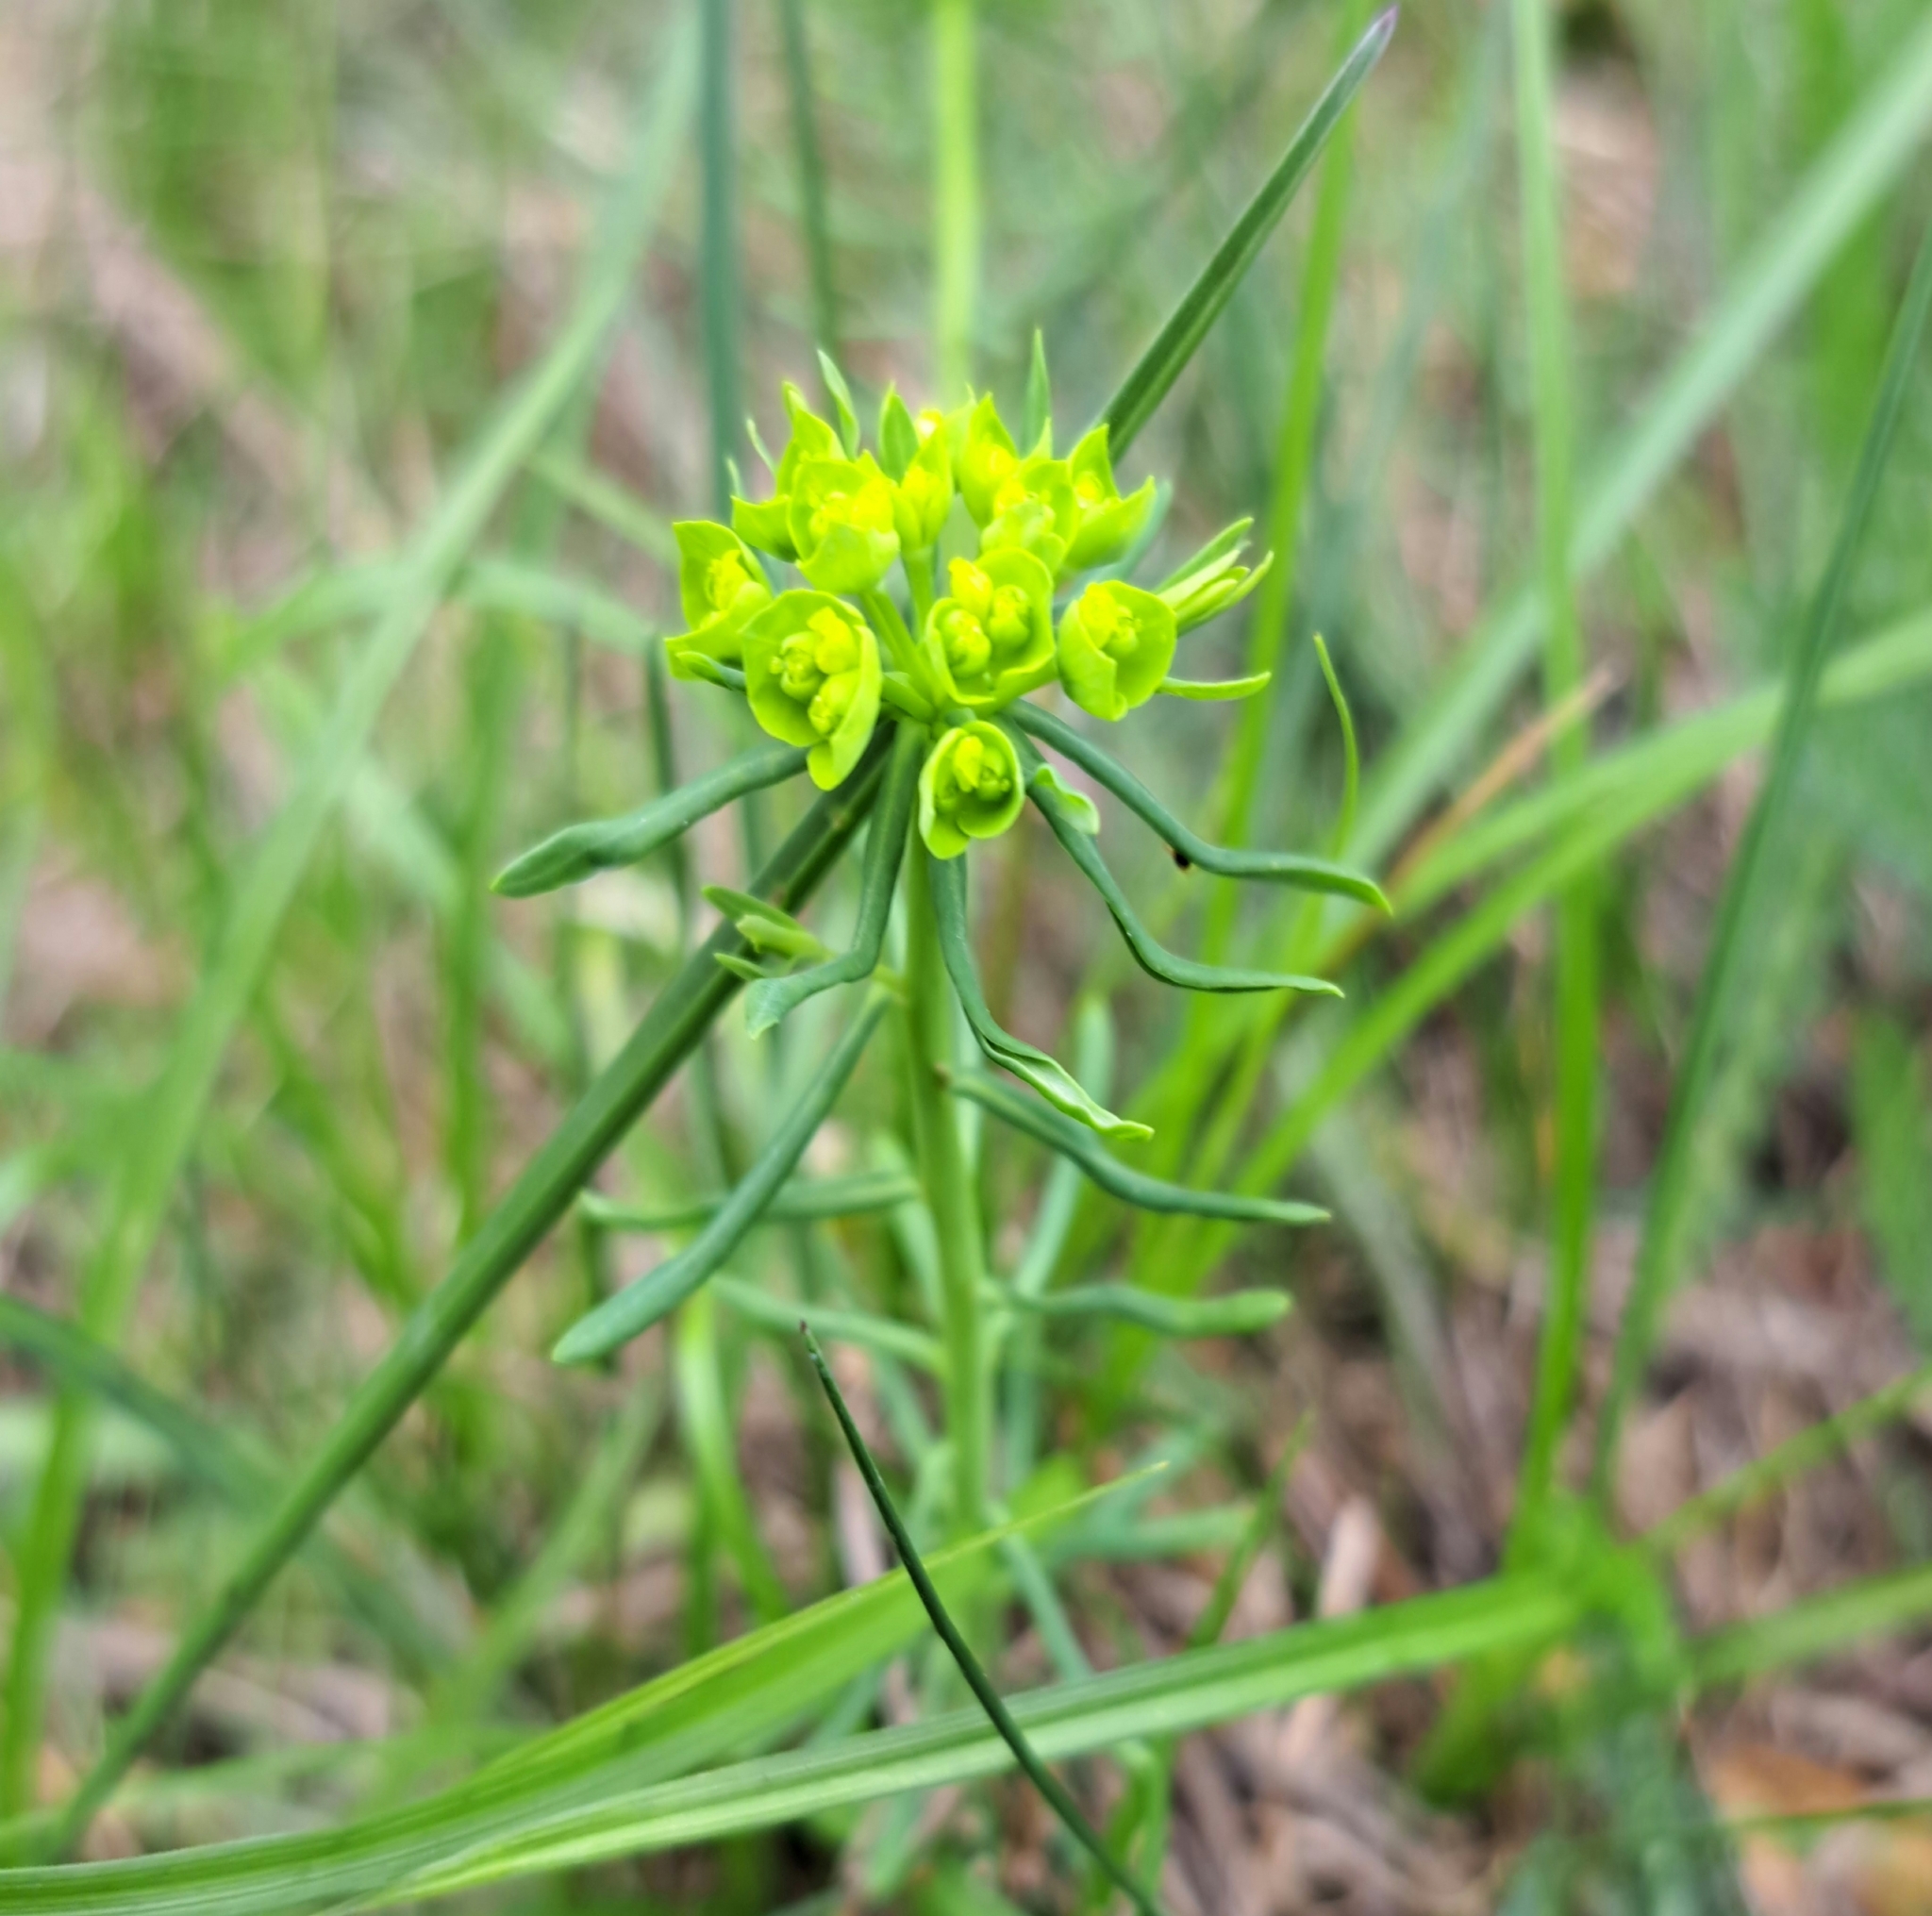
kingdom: Plantae
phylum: Tracheophyta
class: Magnoliopsida
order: Malpighiales
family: Euphorbiaceae
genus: Euphorbia
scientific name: Euphorbia cyparissias
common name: Cypress spurge
